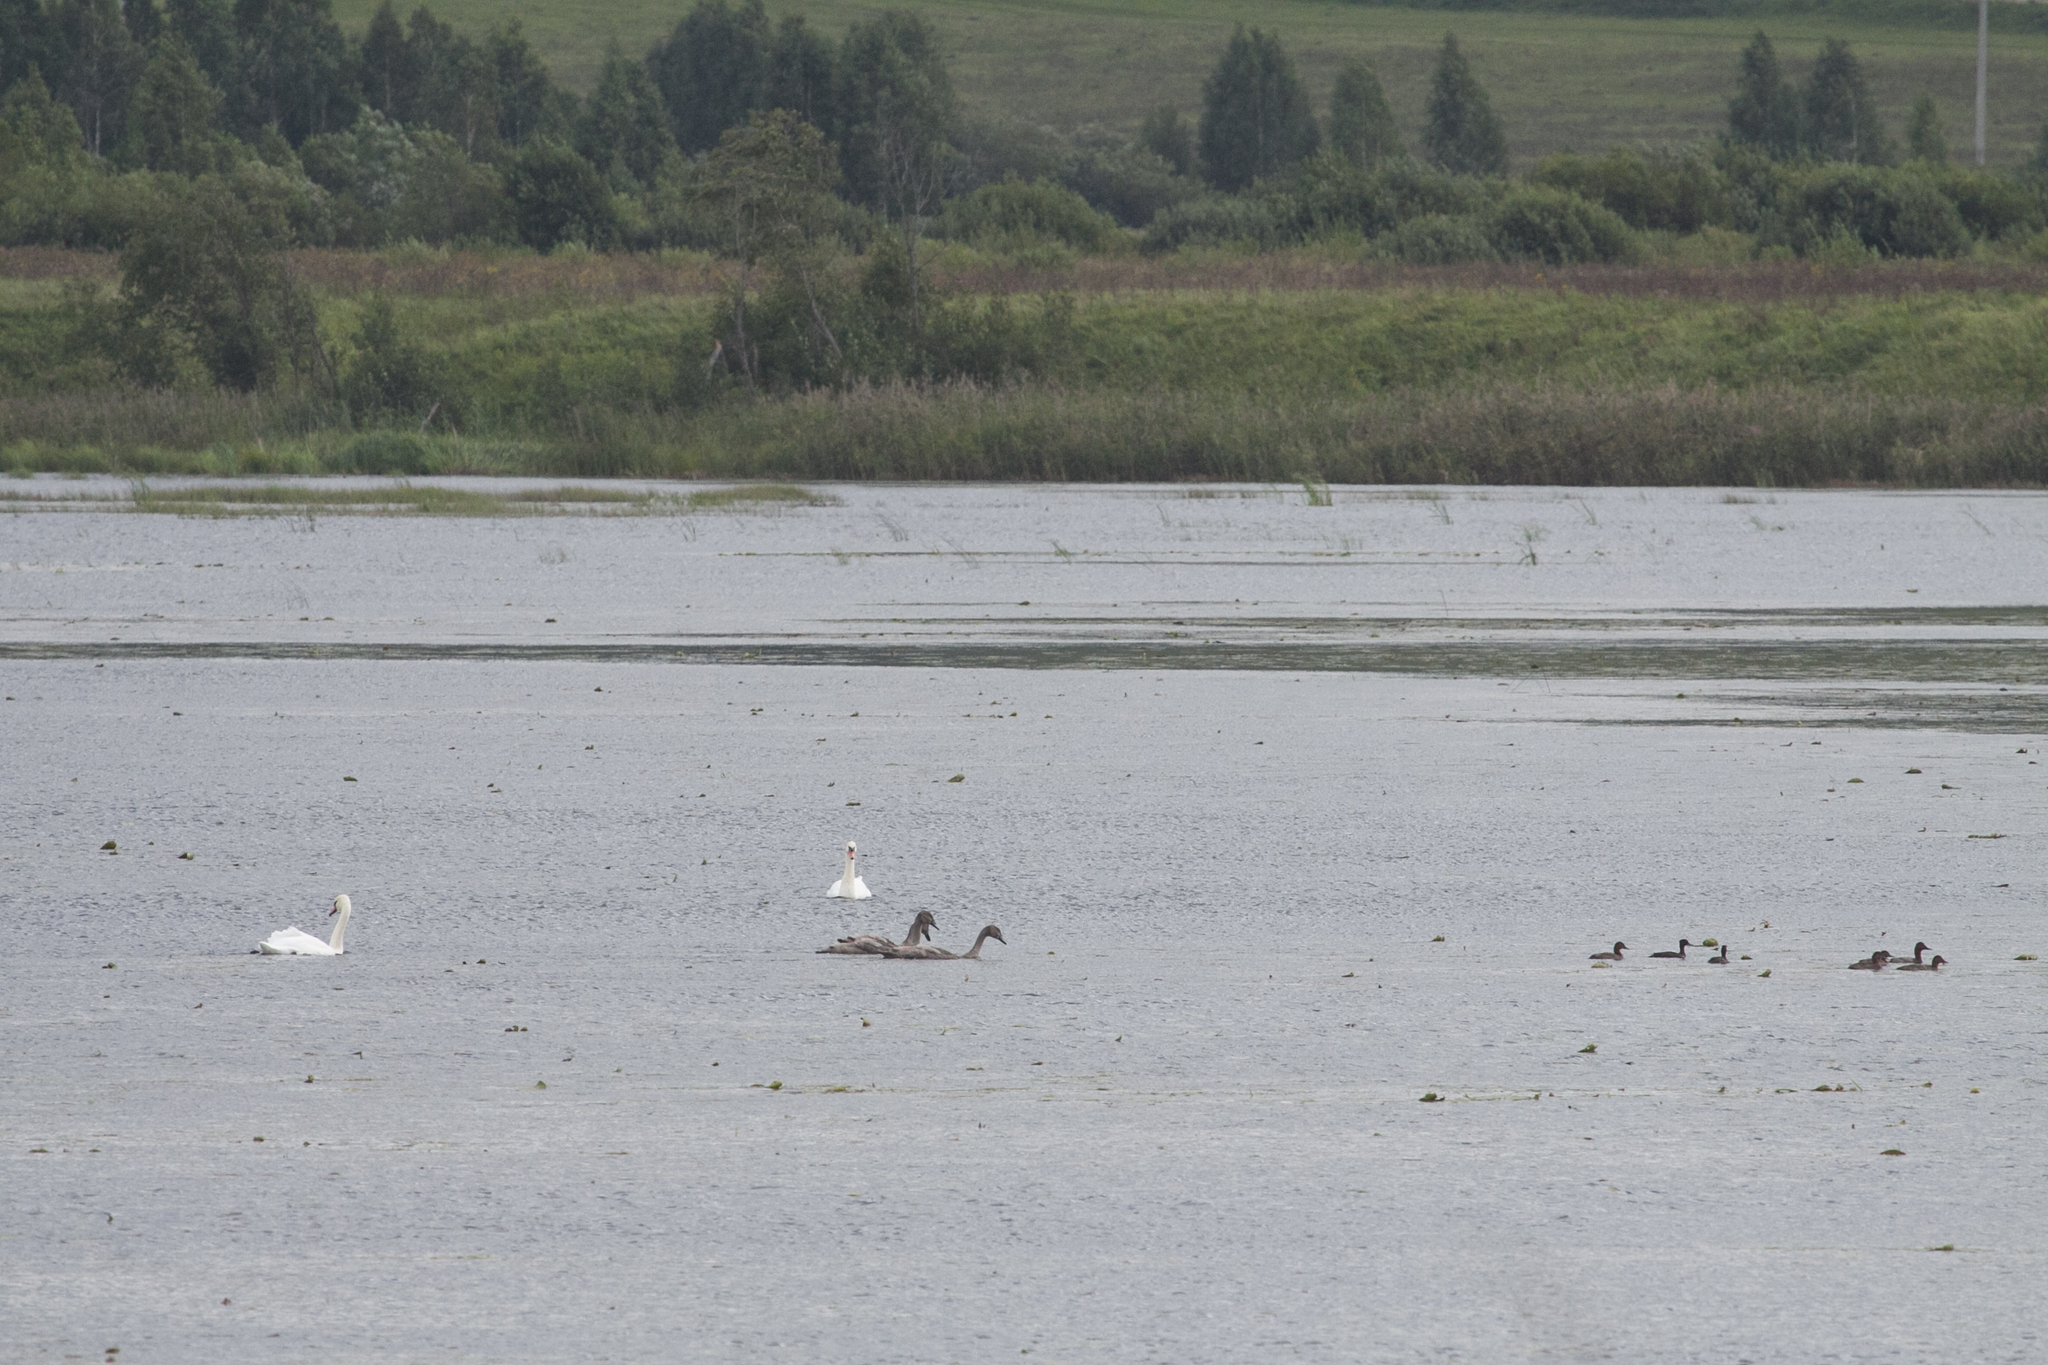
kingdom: Animalia
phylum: Chordata
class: Aves
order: Anseriformes
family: Anatidae
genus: Cygnus
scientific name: Cygnus olor
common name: Mute swan
